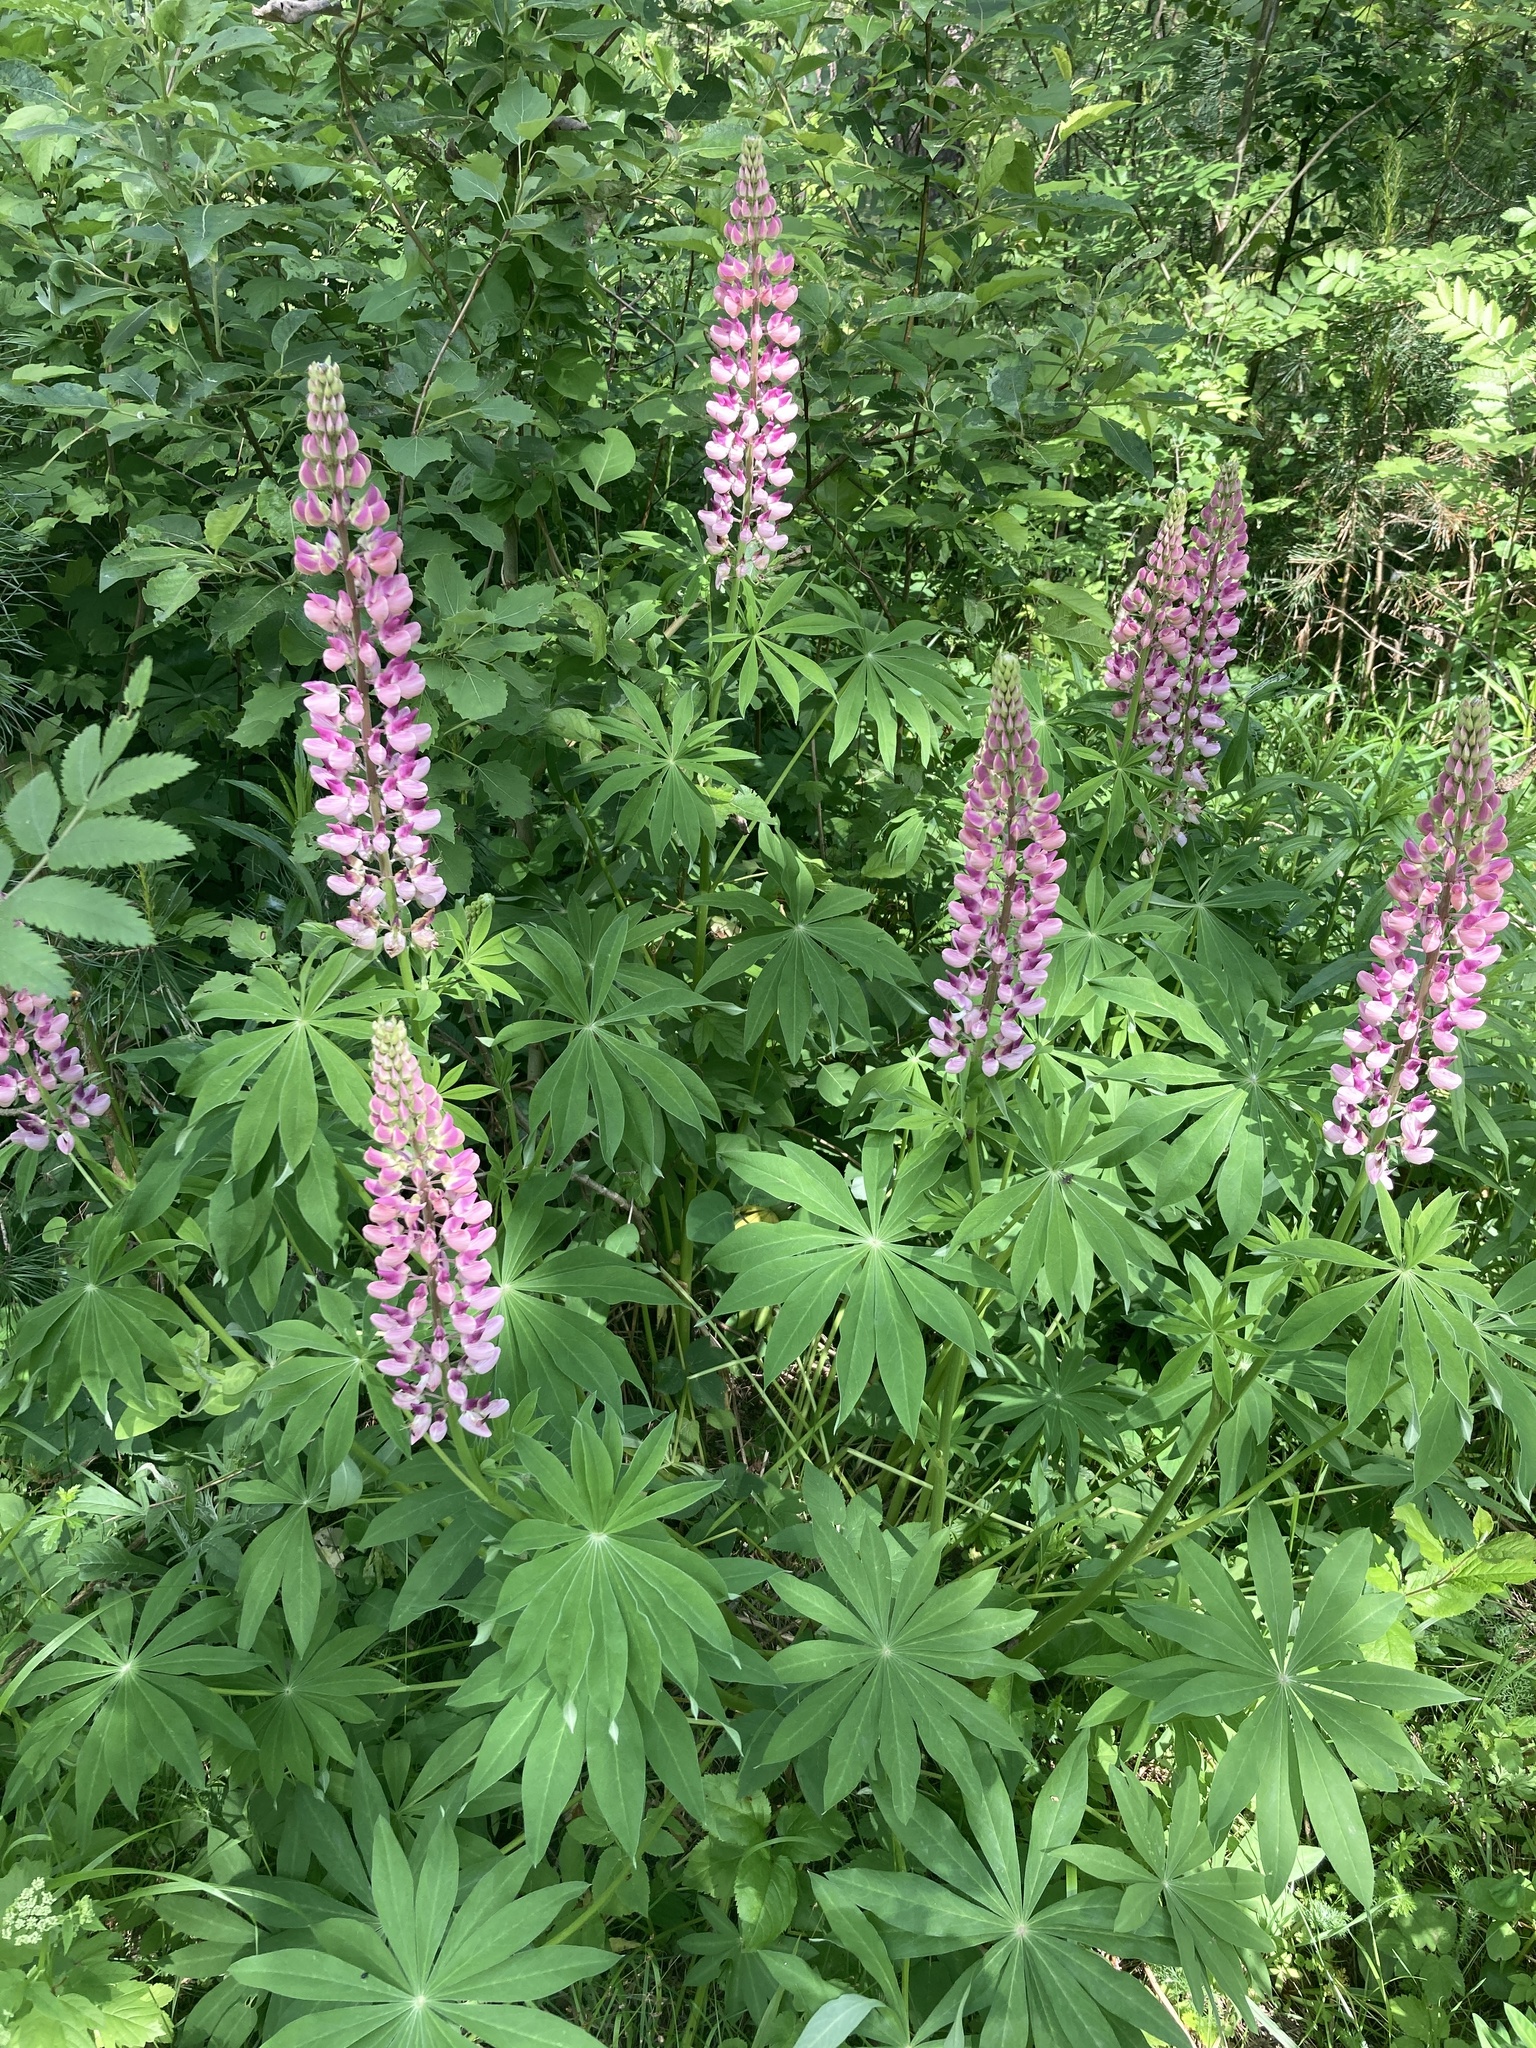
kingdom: Plantae
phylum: Tracheophyta
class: Magnoliopsida
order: Fabales
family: Fabaceae
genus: Lupinus
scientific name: Lupinus polyphyllus
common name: Garden lupin
